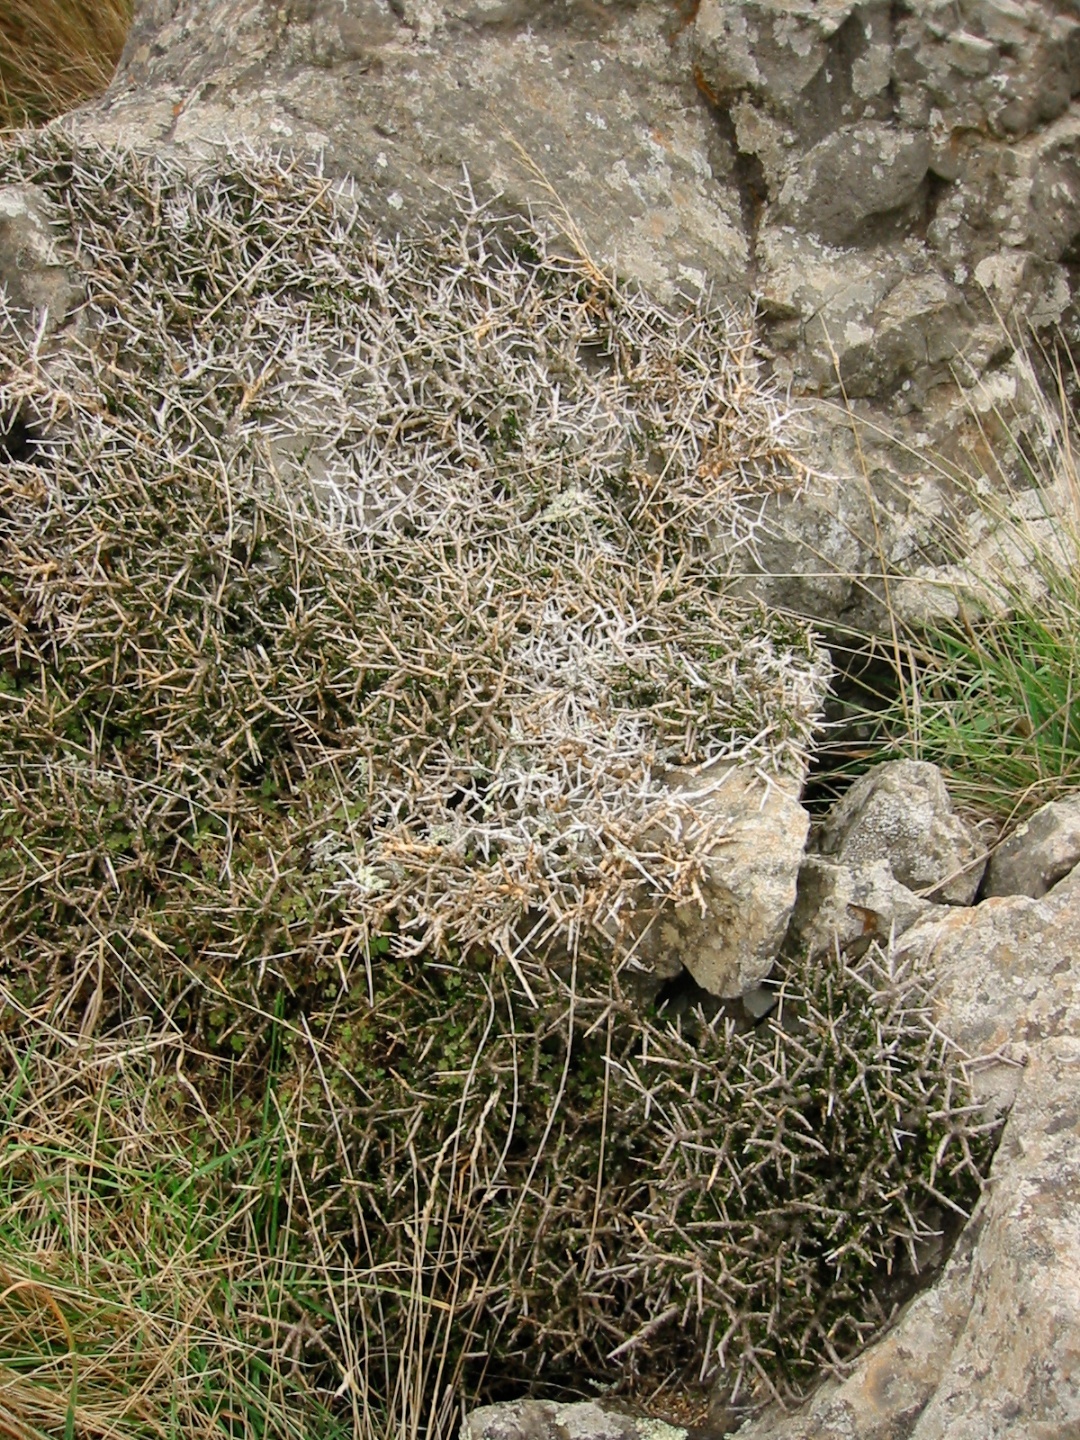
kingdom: Plantae
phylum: Tracheophyta
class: Magnoliopsida
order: Malpighiales
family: Violaceae
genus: Melicytus
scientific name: Melicytus alpinus
